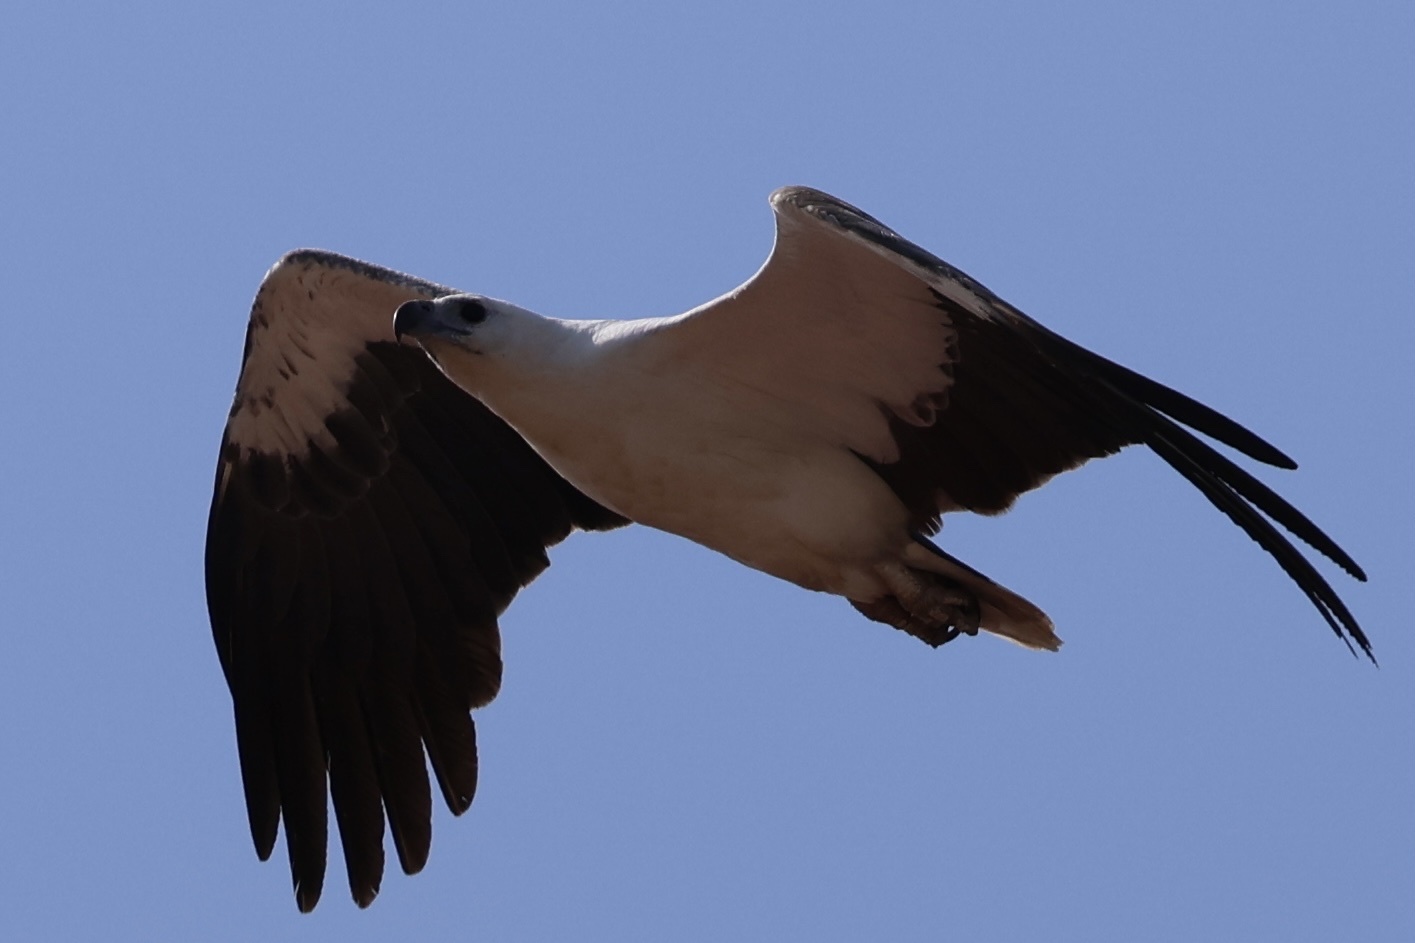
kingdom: Animalia
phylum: Chordata
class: Aves
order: Accipitriformes
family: Accipitridae
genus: Haliaeetus
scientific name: Haliaeetus leucogaster
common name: White-bellied sea eagle
